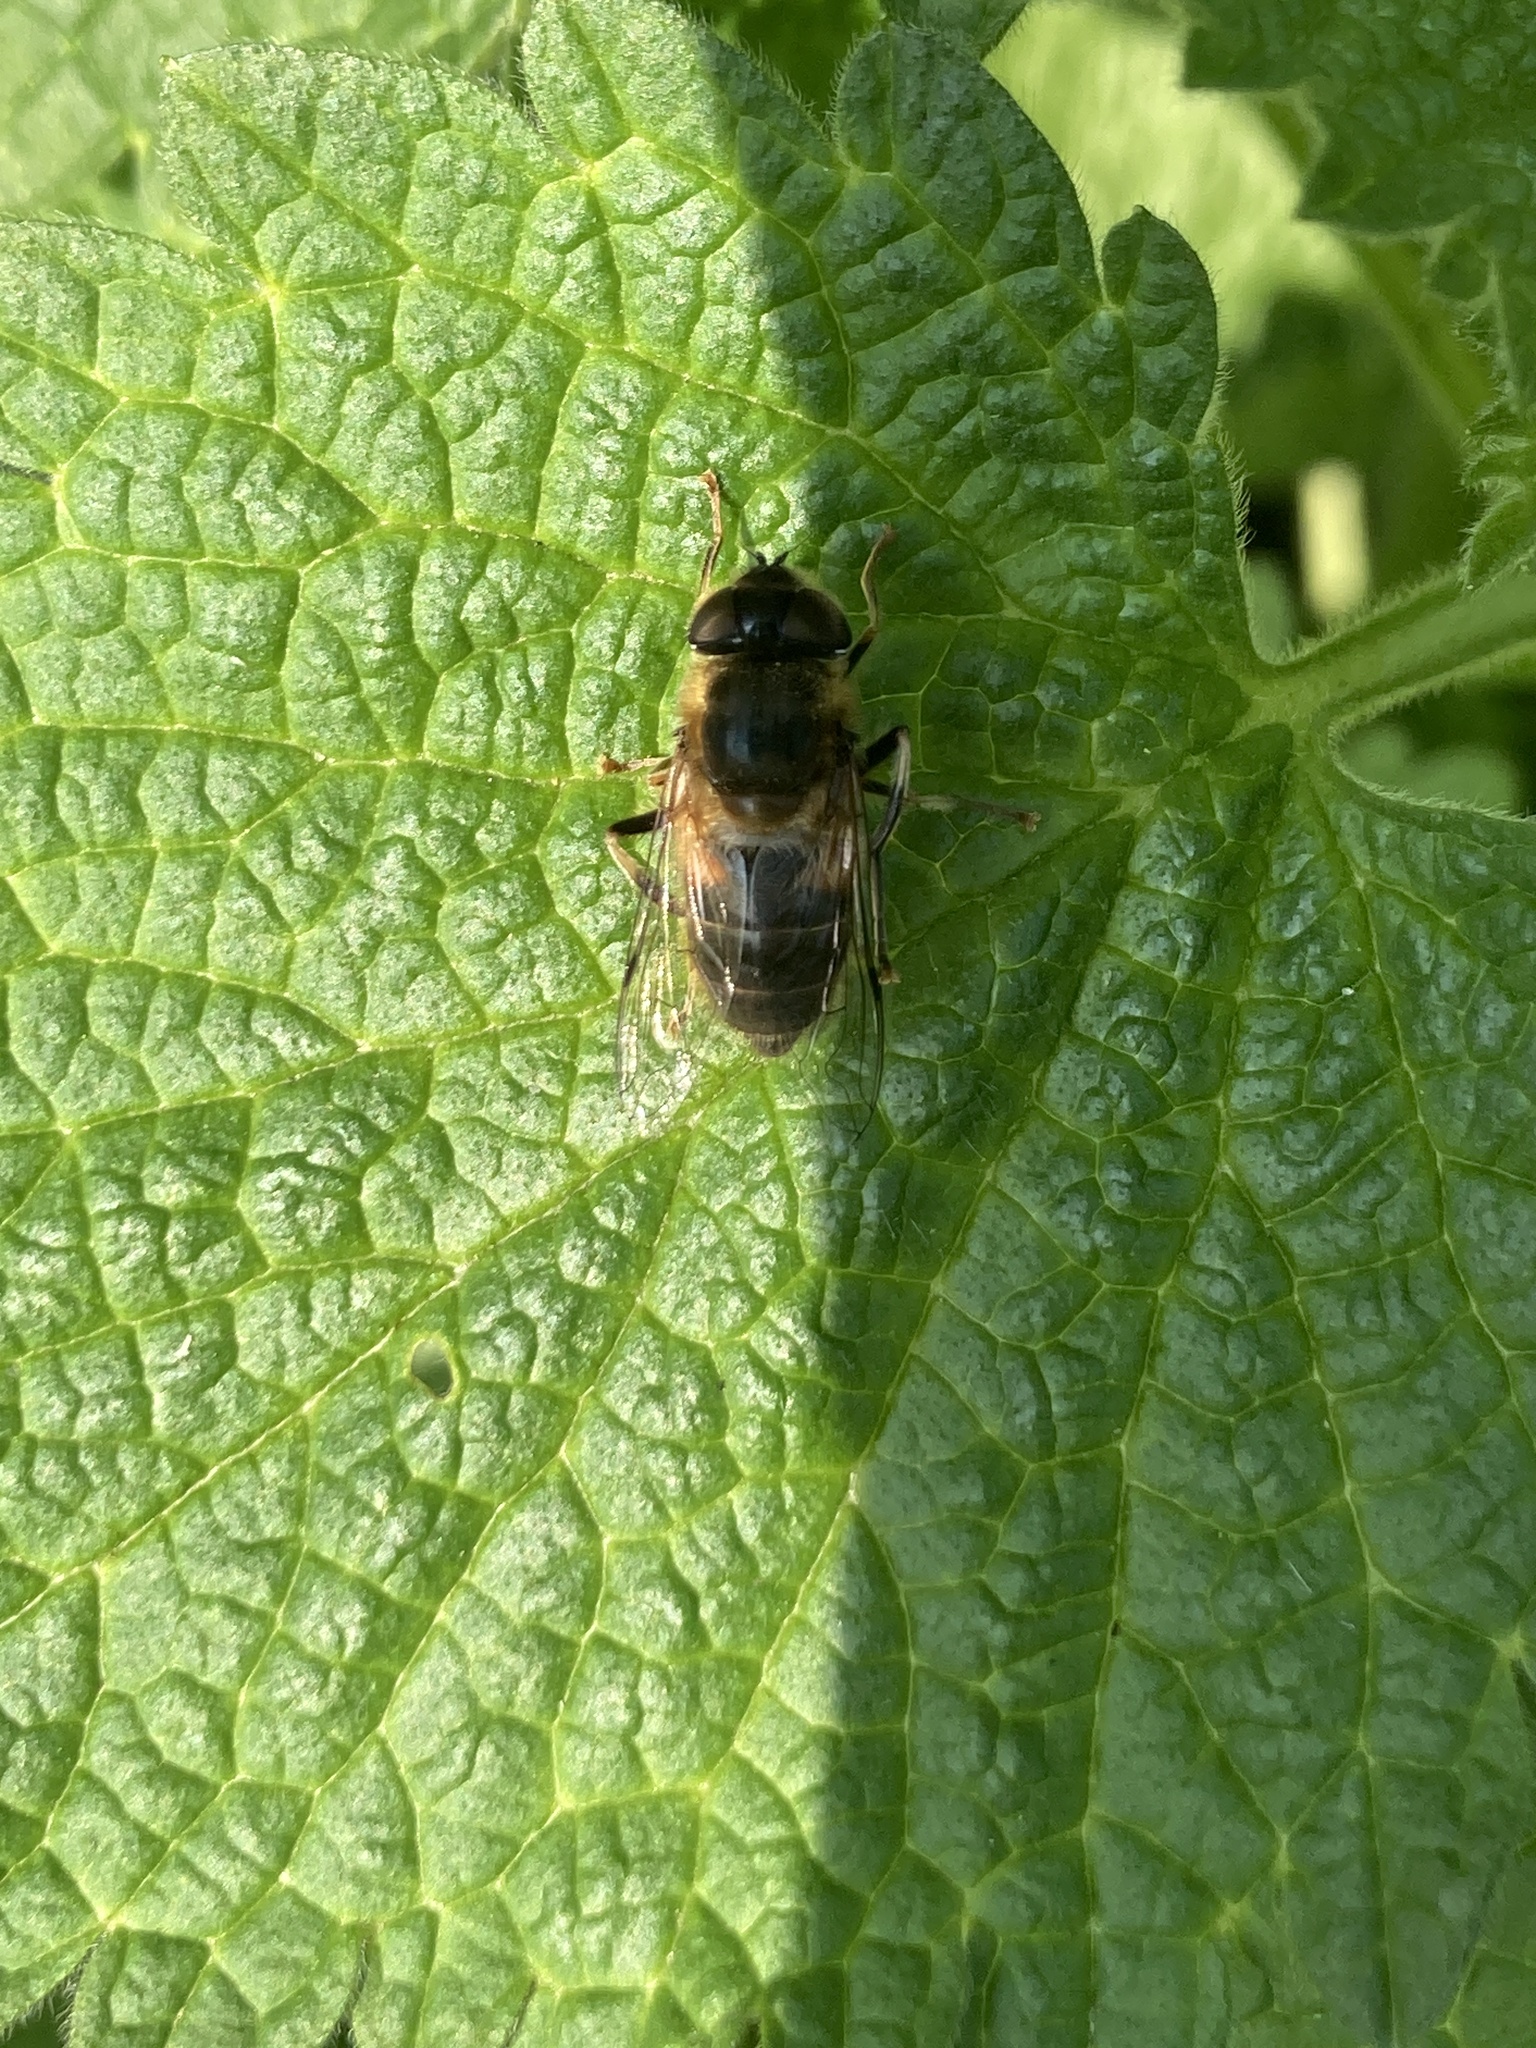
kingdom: Animalia
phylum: Arthropoda
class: Insecta
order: Diptera
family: Syrphidae
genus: Eristalis
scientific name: Eristalis pertinax
